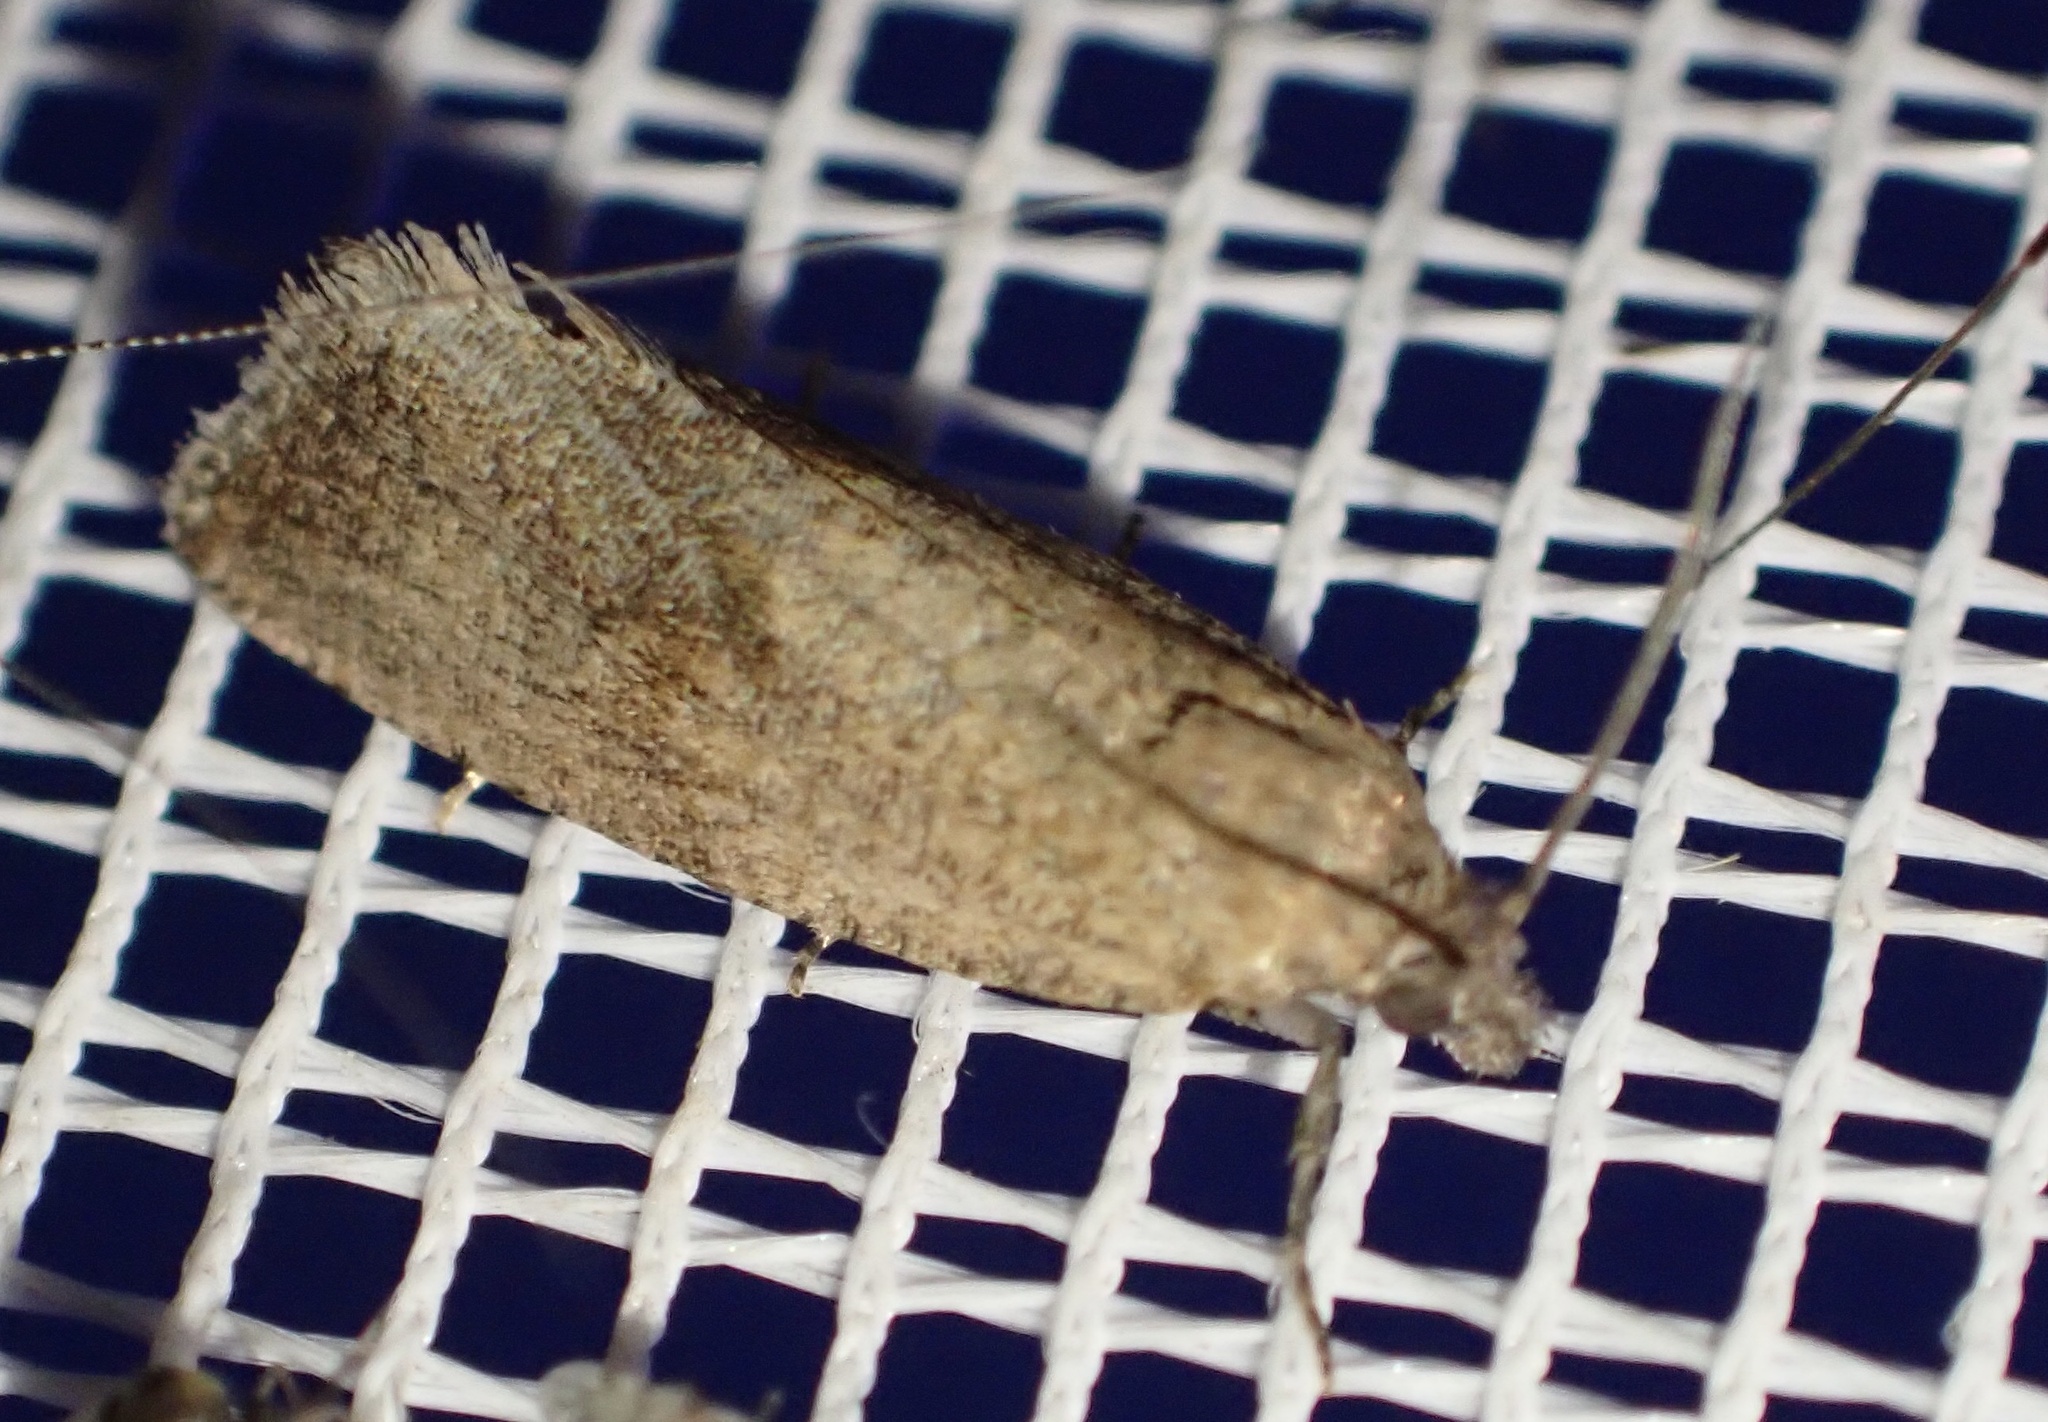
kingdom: Animalia
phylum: Arthropoda
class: Insecta
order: Lepidoptera
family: Tortricidae
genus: Celypha
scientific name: Celypha striana
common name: Barred marble
